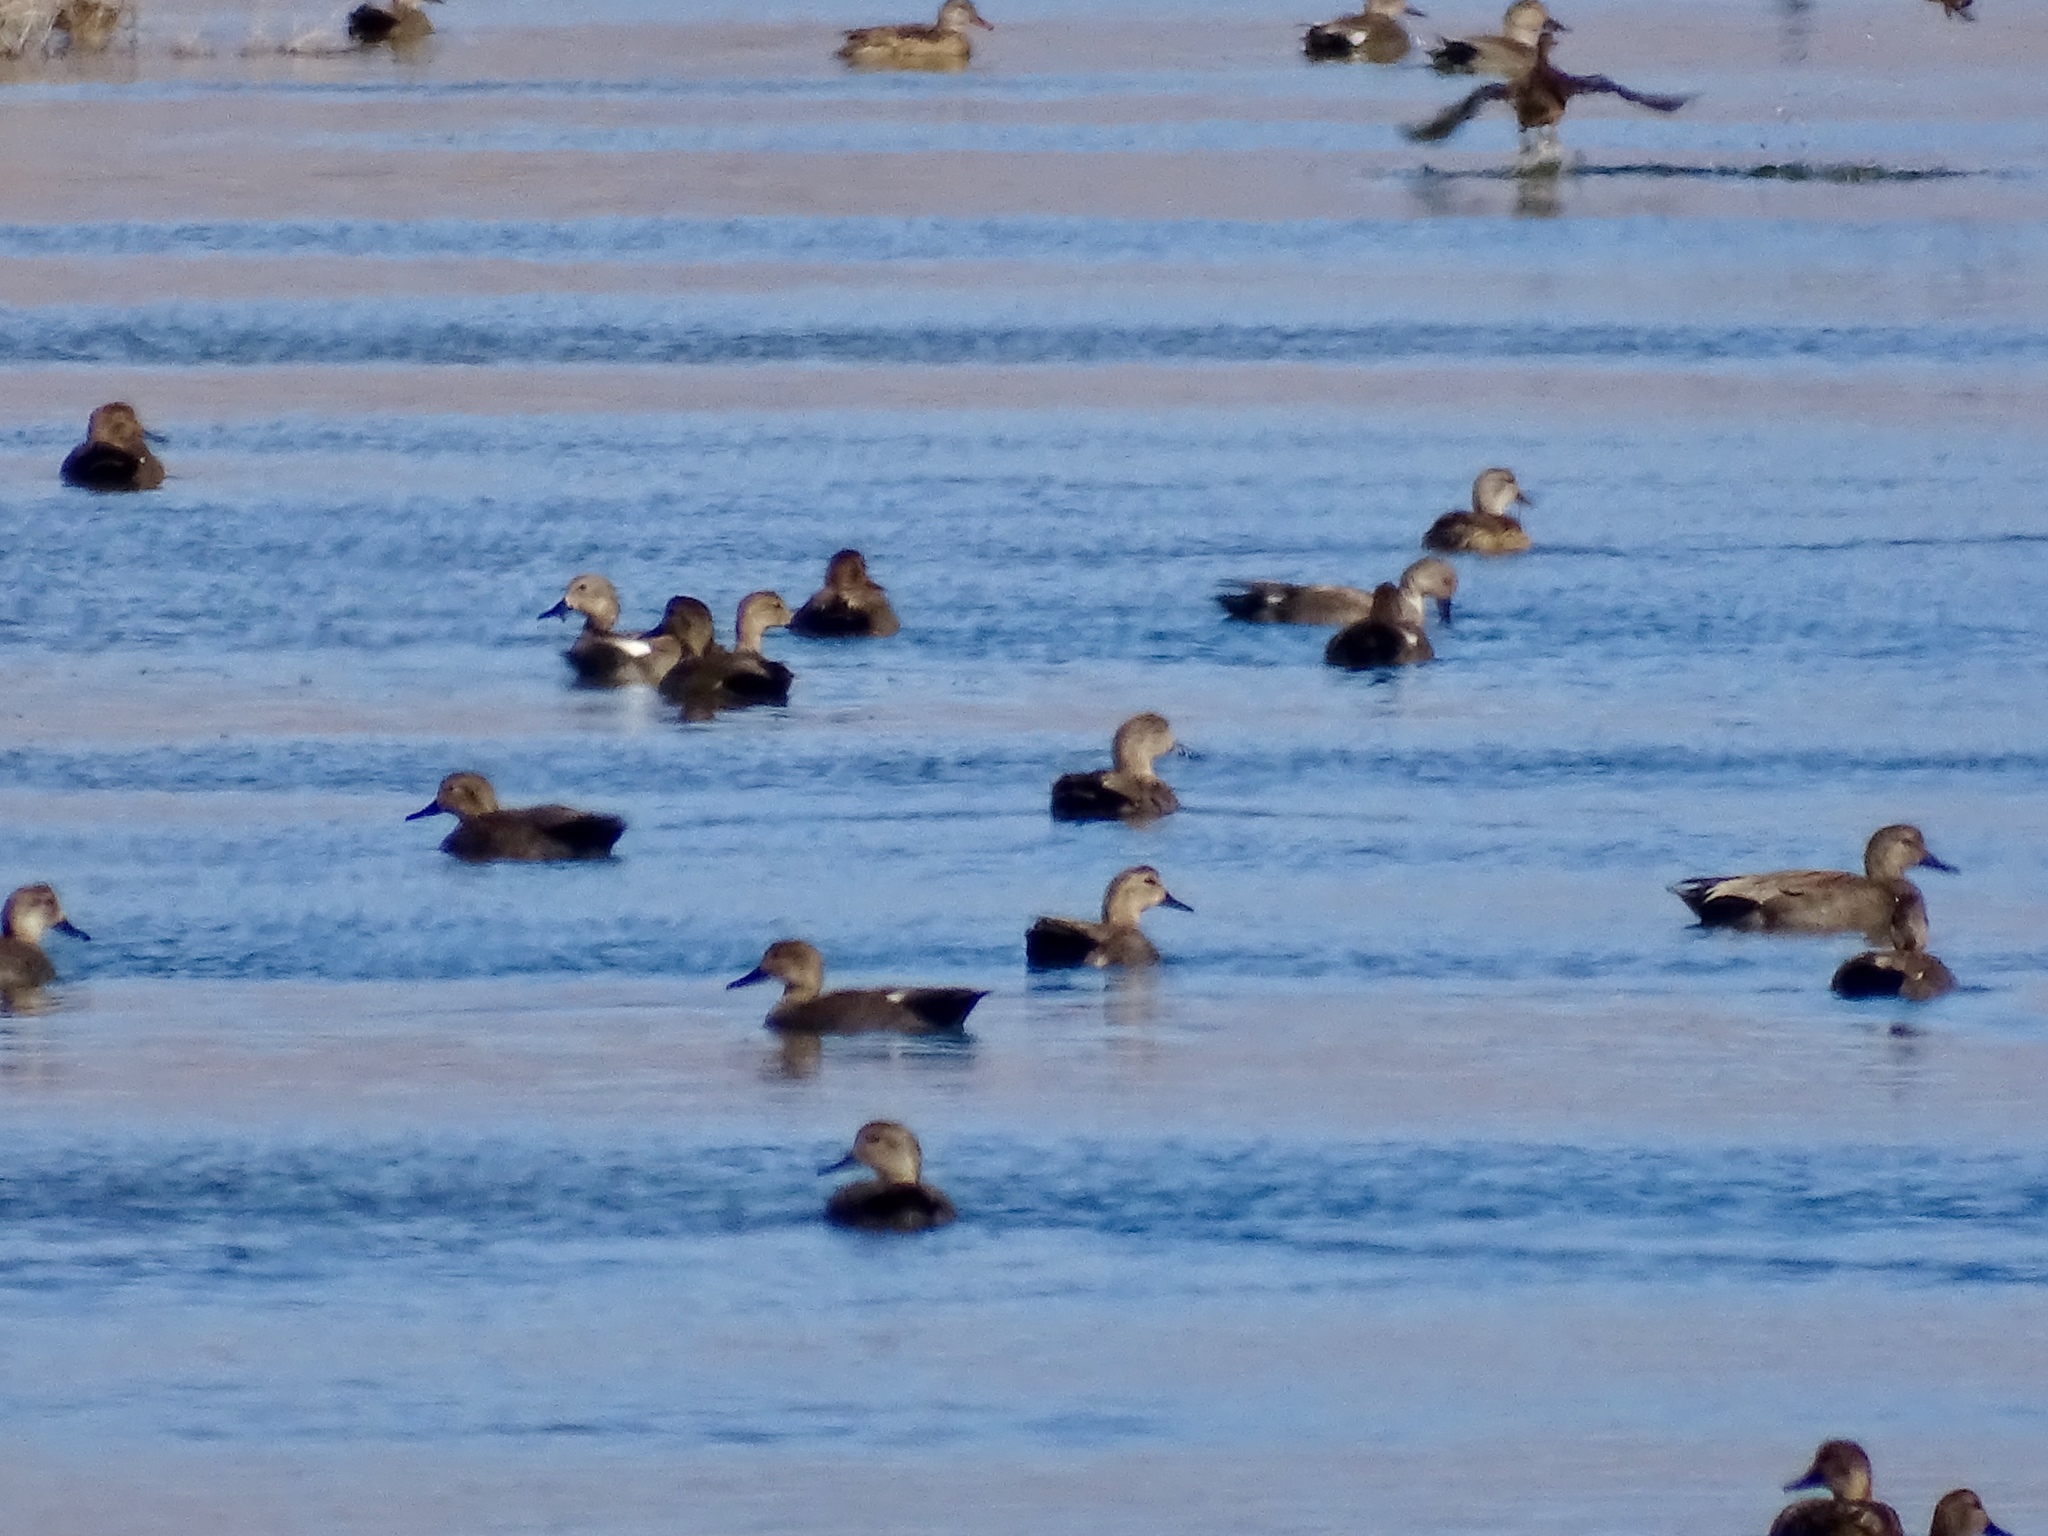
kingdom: Animalia
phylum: Chordata
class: Aves
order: Anseriformes
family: Anatidae
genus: Mareca
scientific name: Mareca strepera
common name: Gadwall
